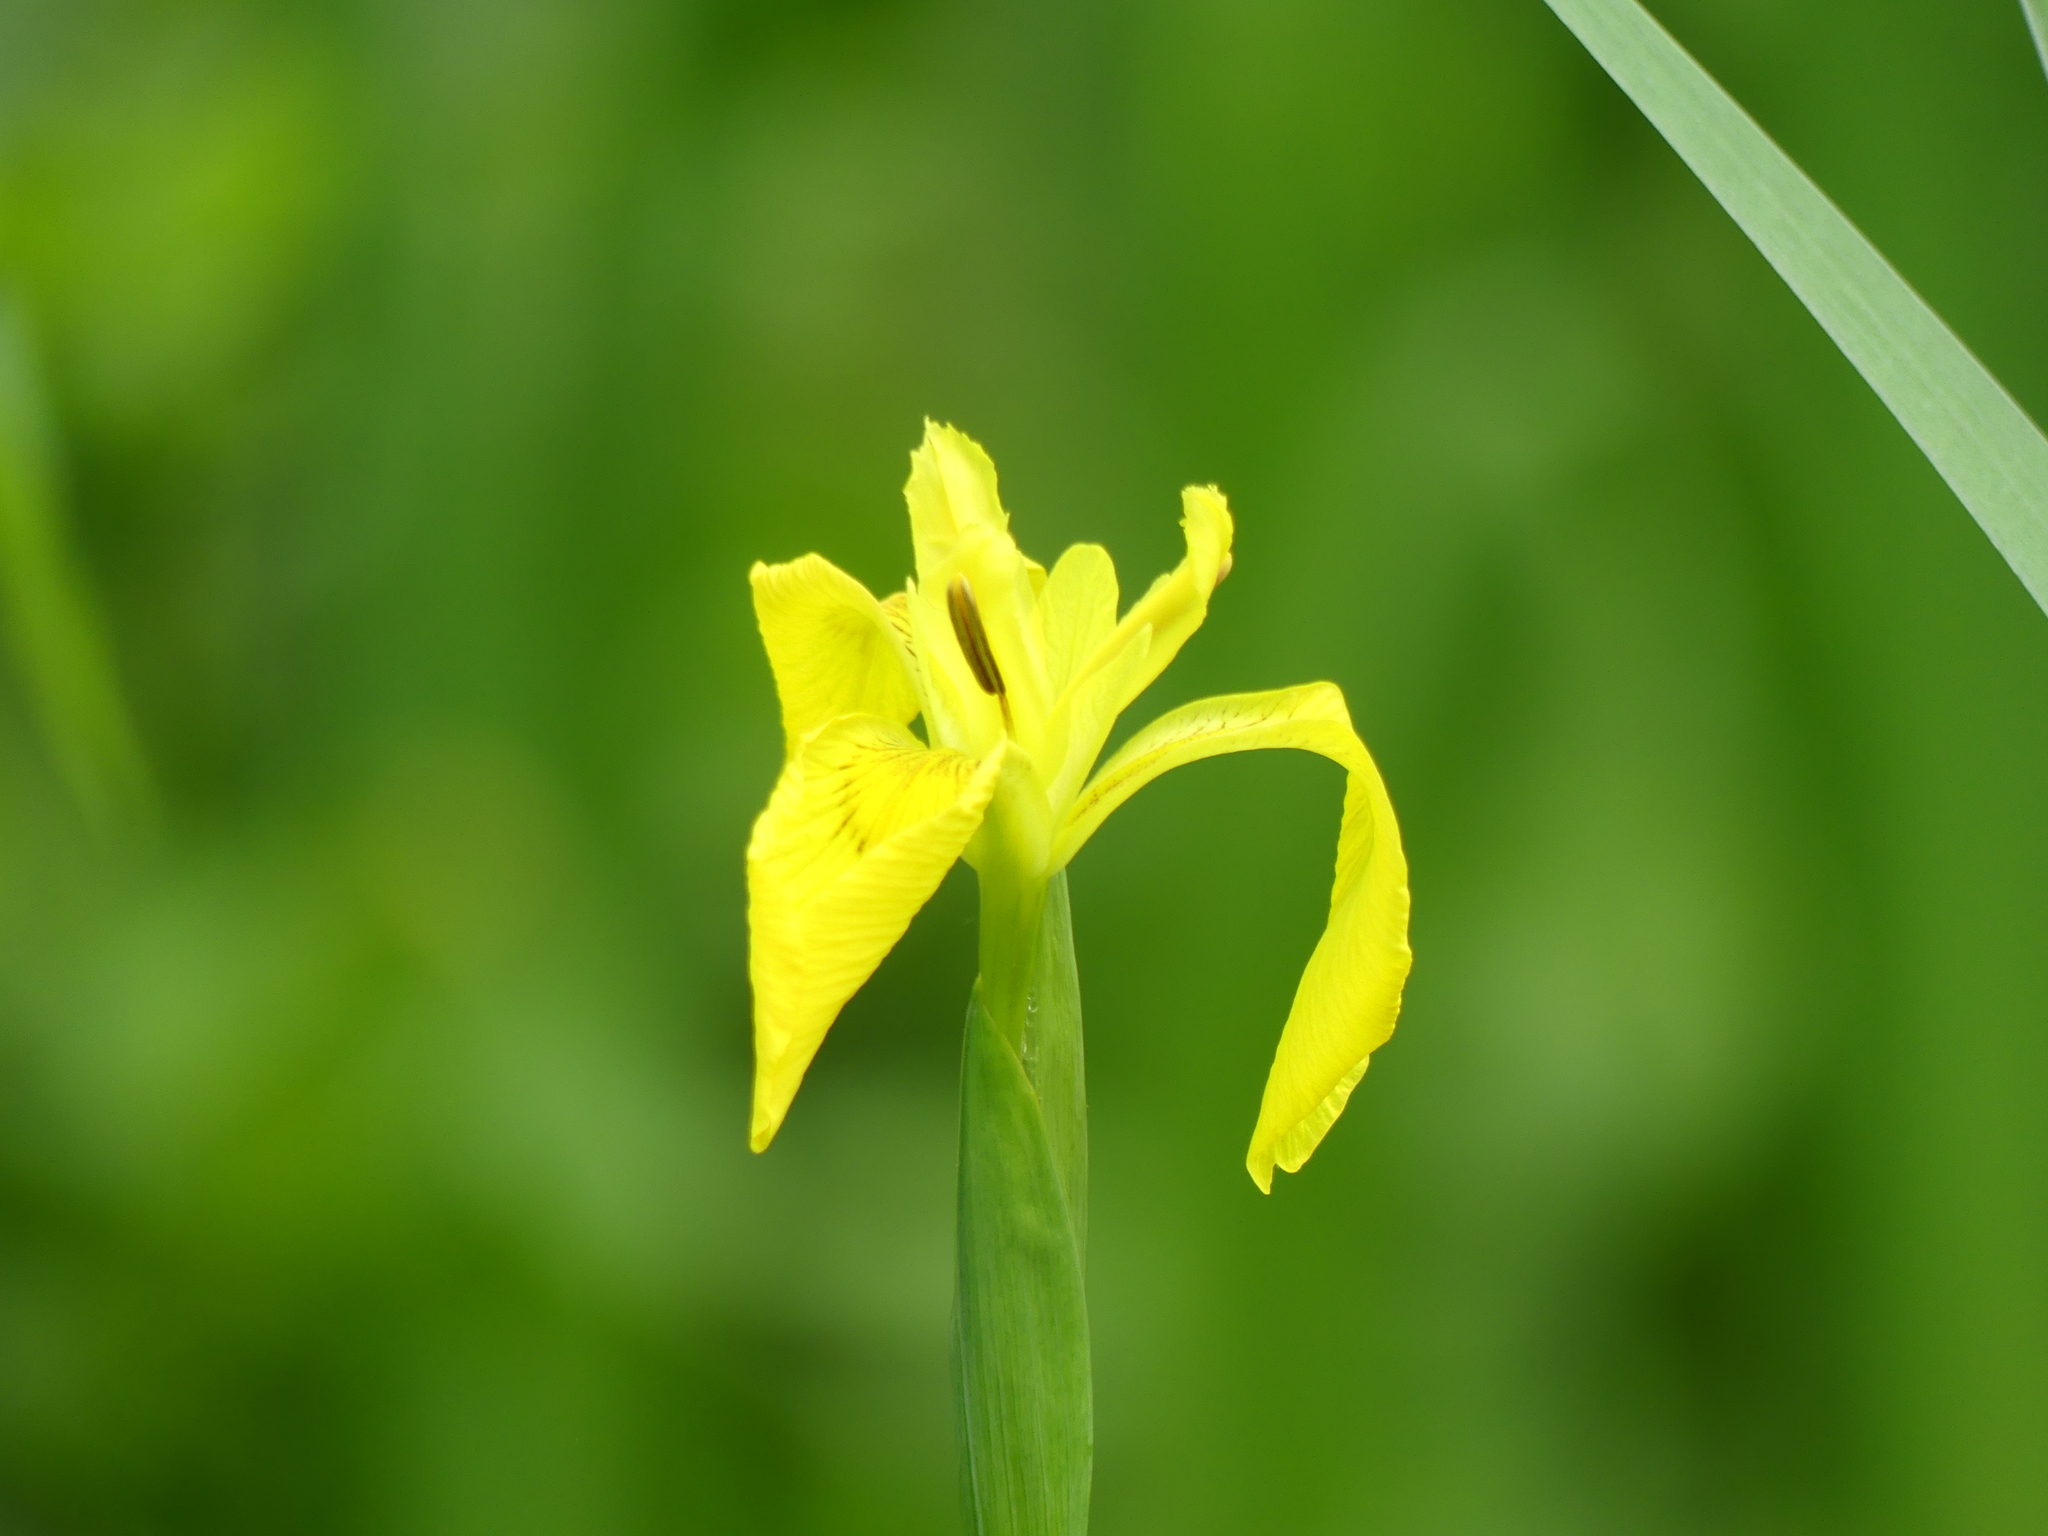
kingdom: Plantae
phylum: Tracheophyta
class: Liliopsida
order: Asparagales
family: Iridaceae
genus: Iris
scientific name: Iris pseudacorus
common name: Yellow flag
